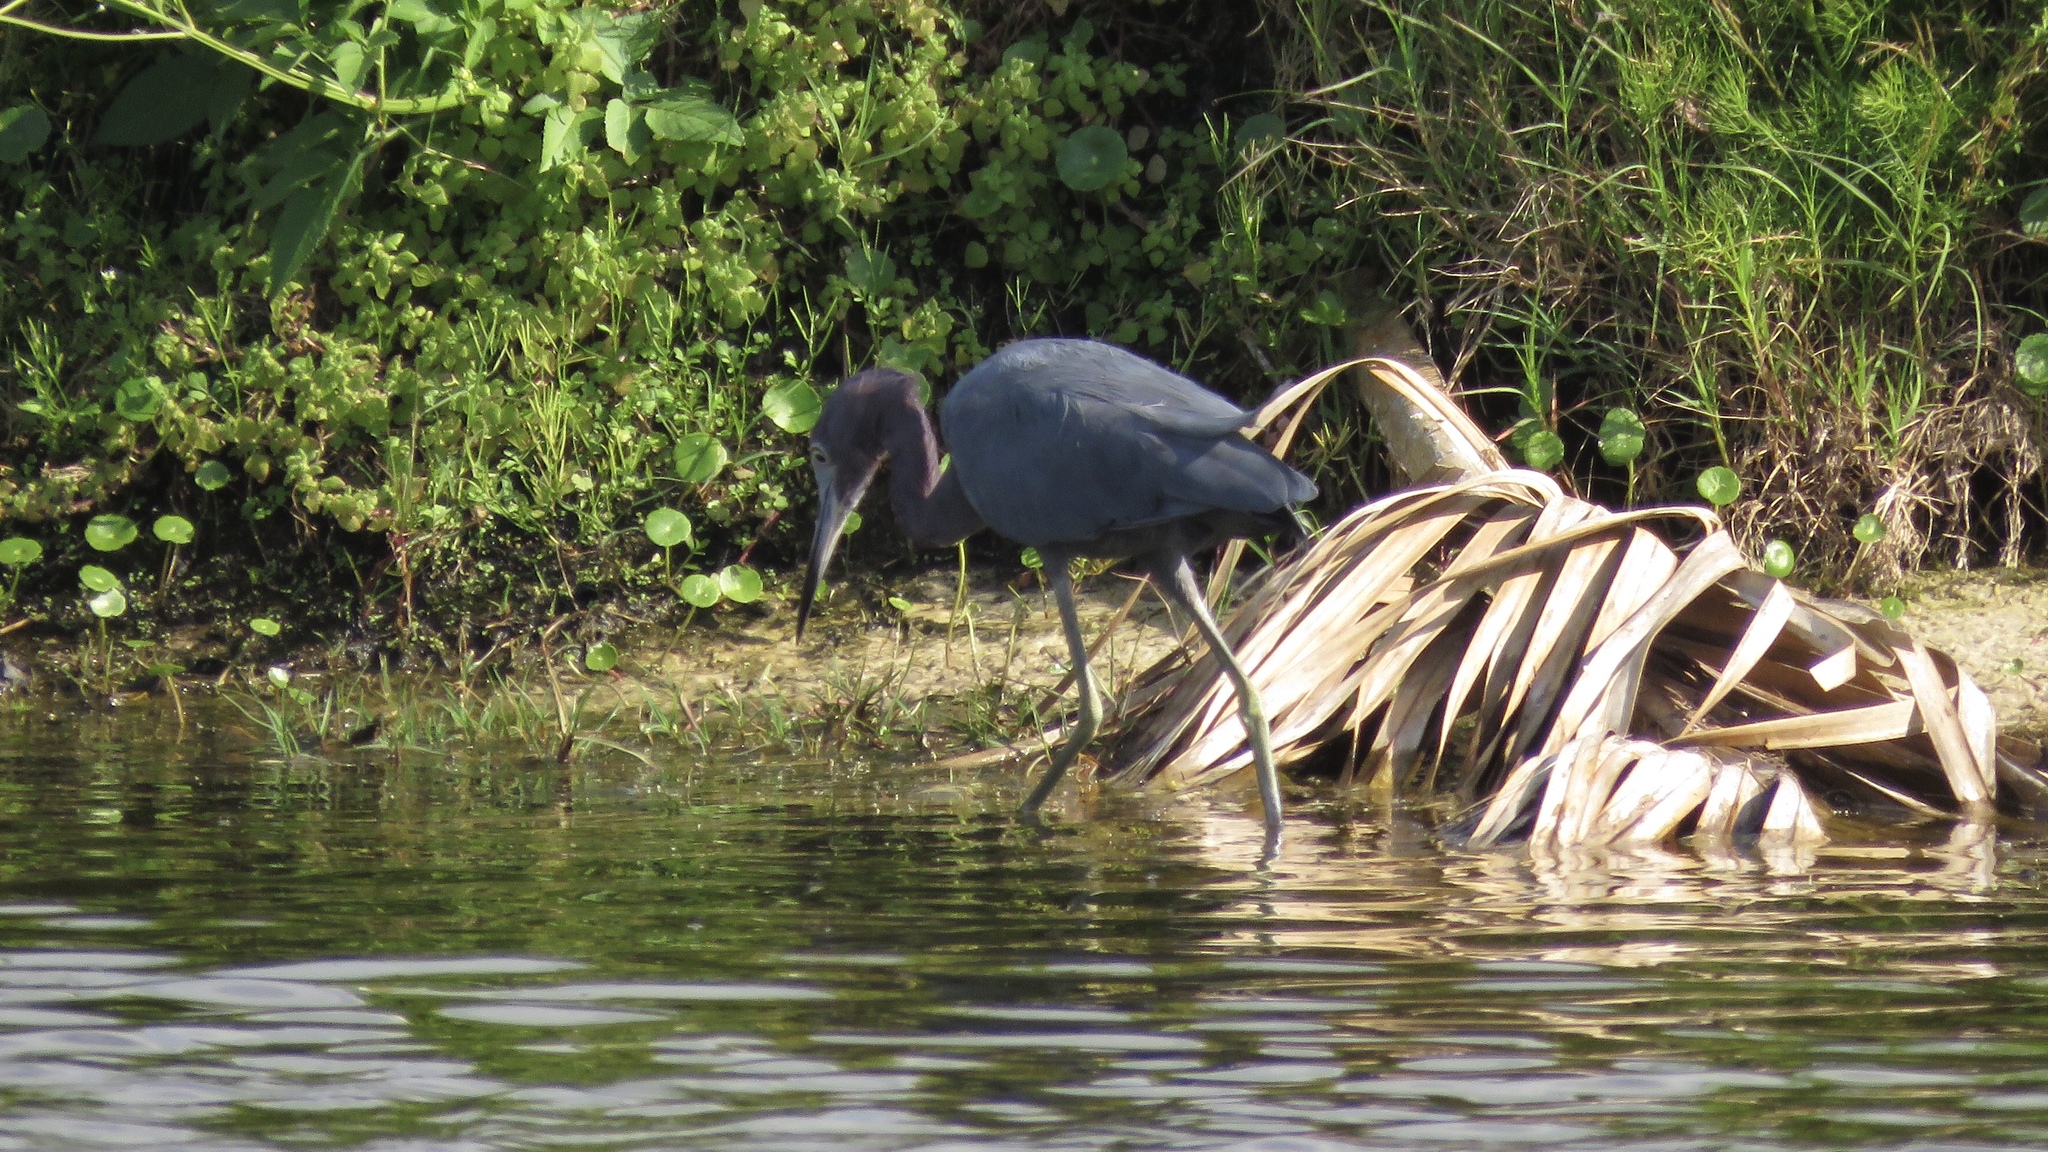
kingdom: Animalia
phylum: Chordata
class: Aves
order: Pelecaniformes
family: Ardeidae
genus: Egretta
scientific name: Egretta caerulea
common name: Little blue heron
